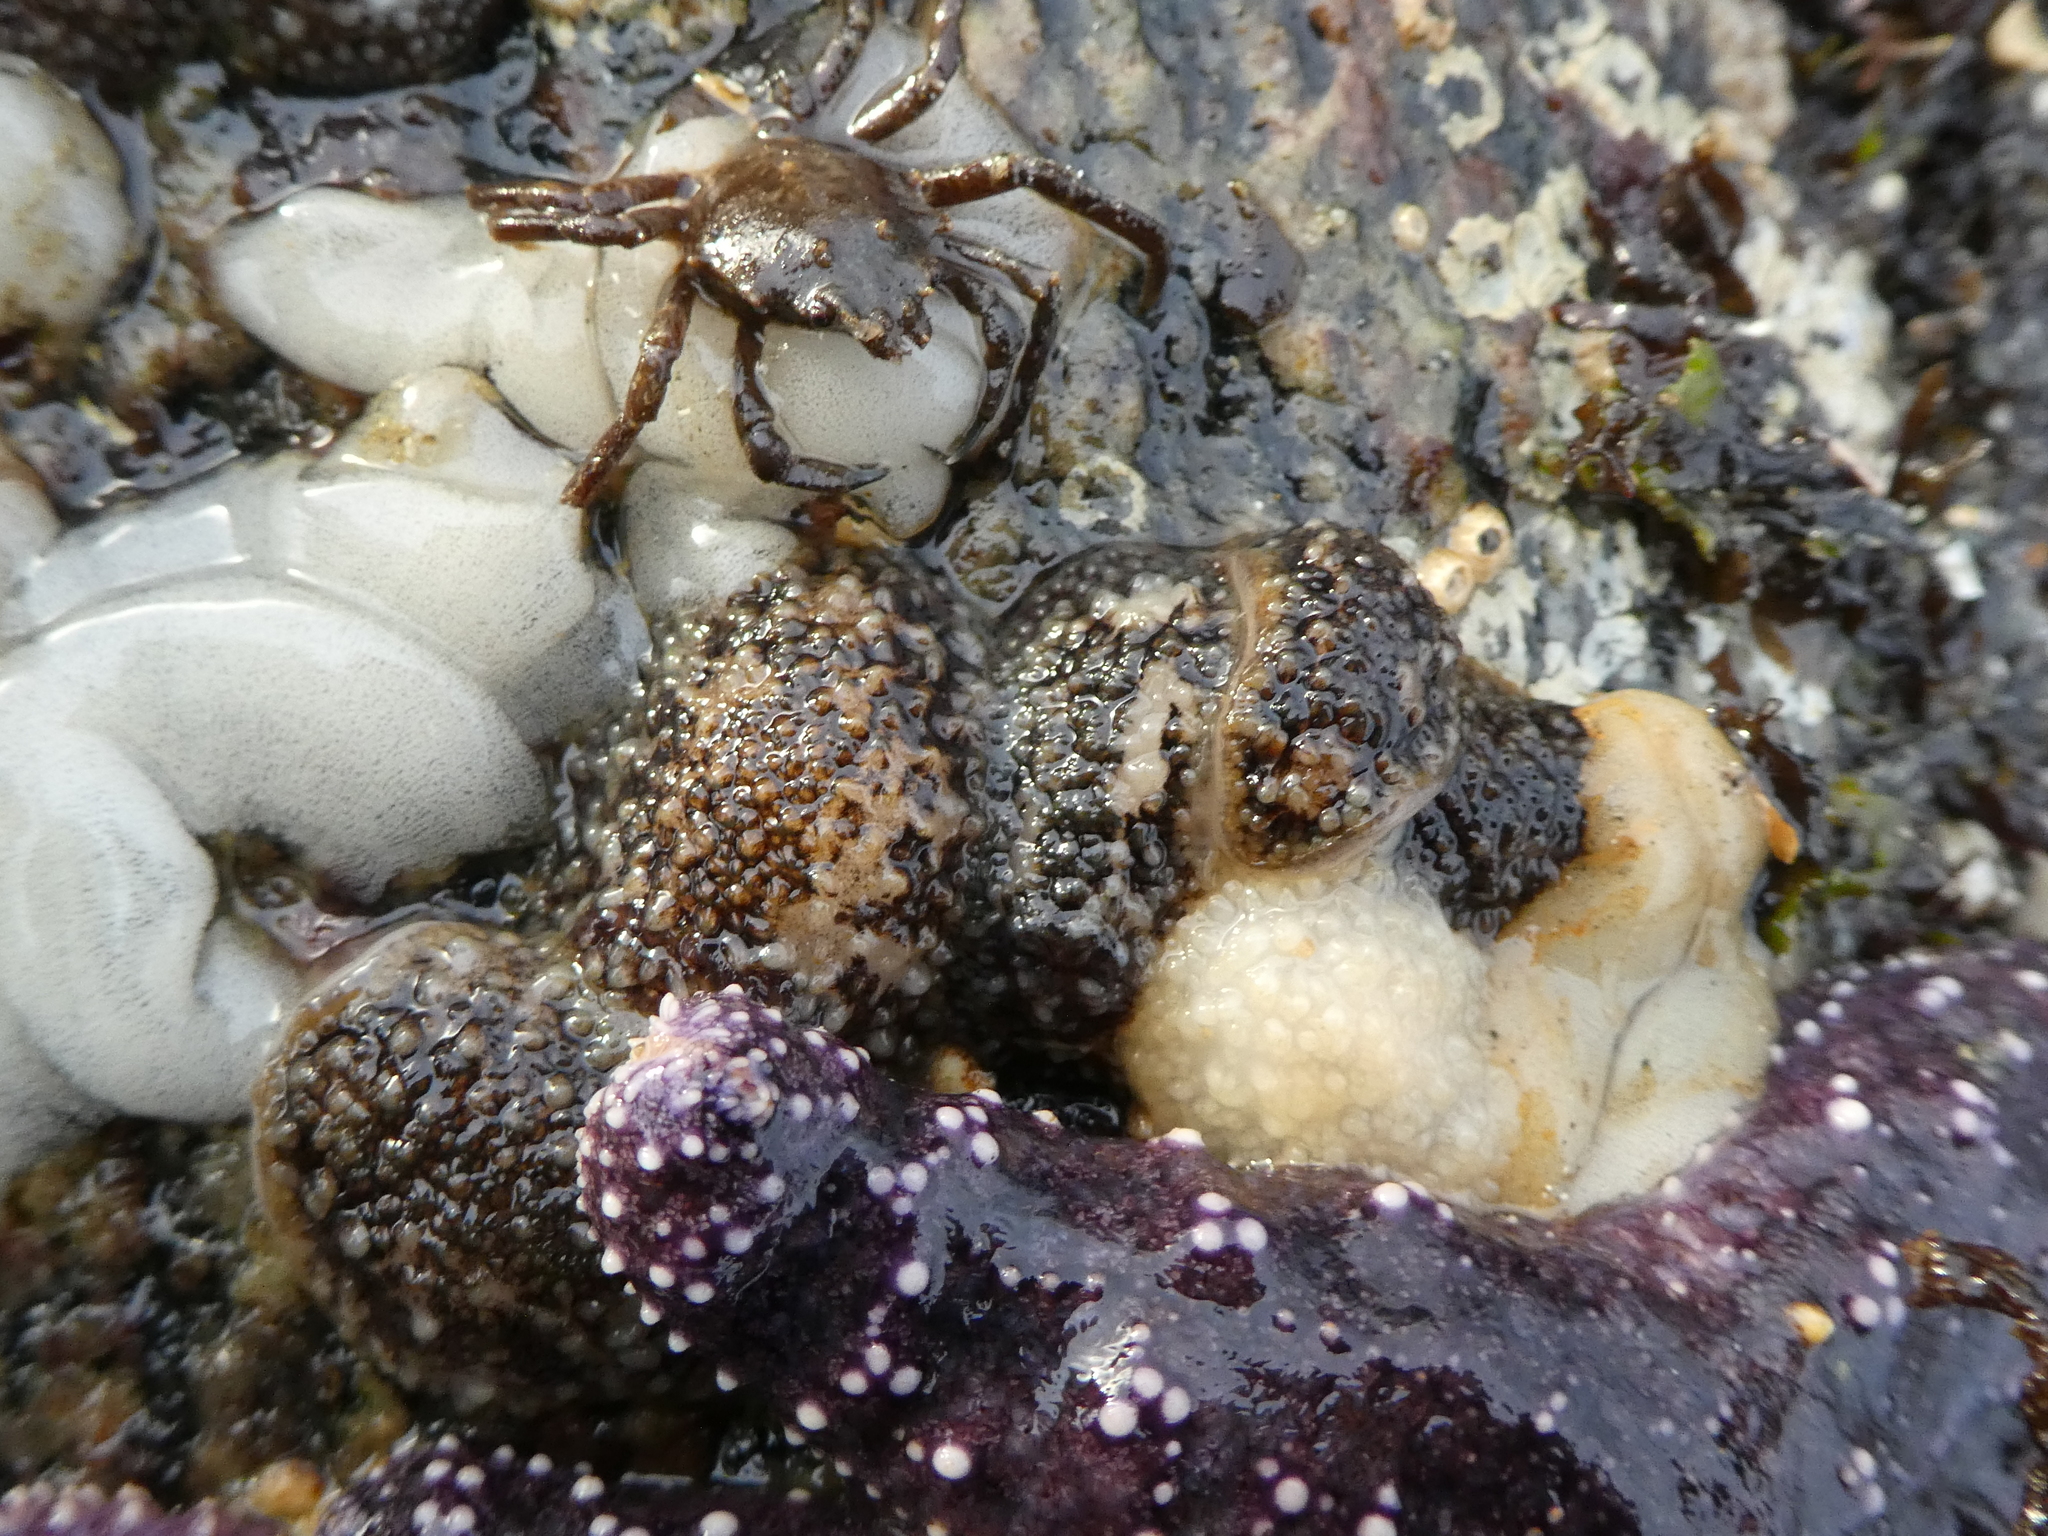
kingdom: Animalia
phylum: Mollusca
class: Gastropoda
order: Nudibranchia
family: Onchidorididae
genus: Onchidoris
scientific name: Onchidoris bilamellata
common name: Barnacle-eating onchidoris
